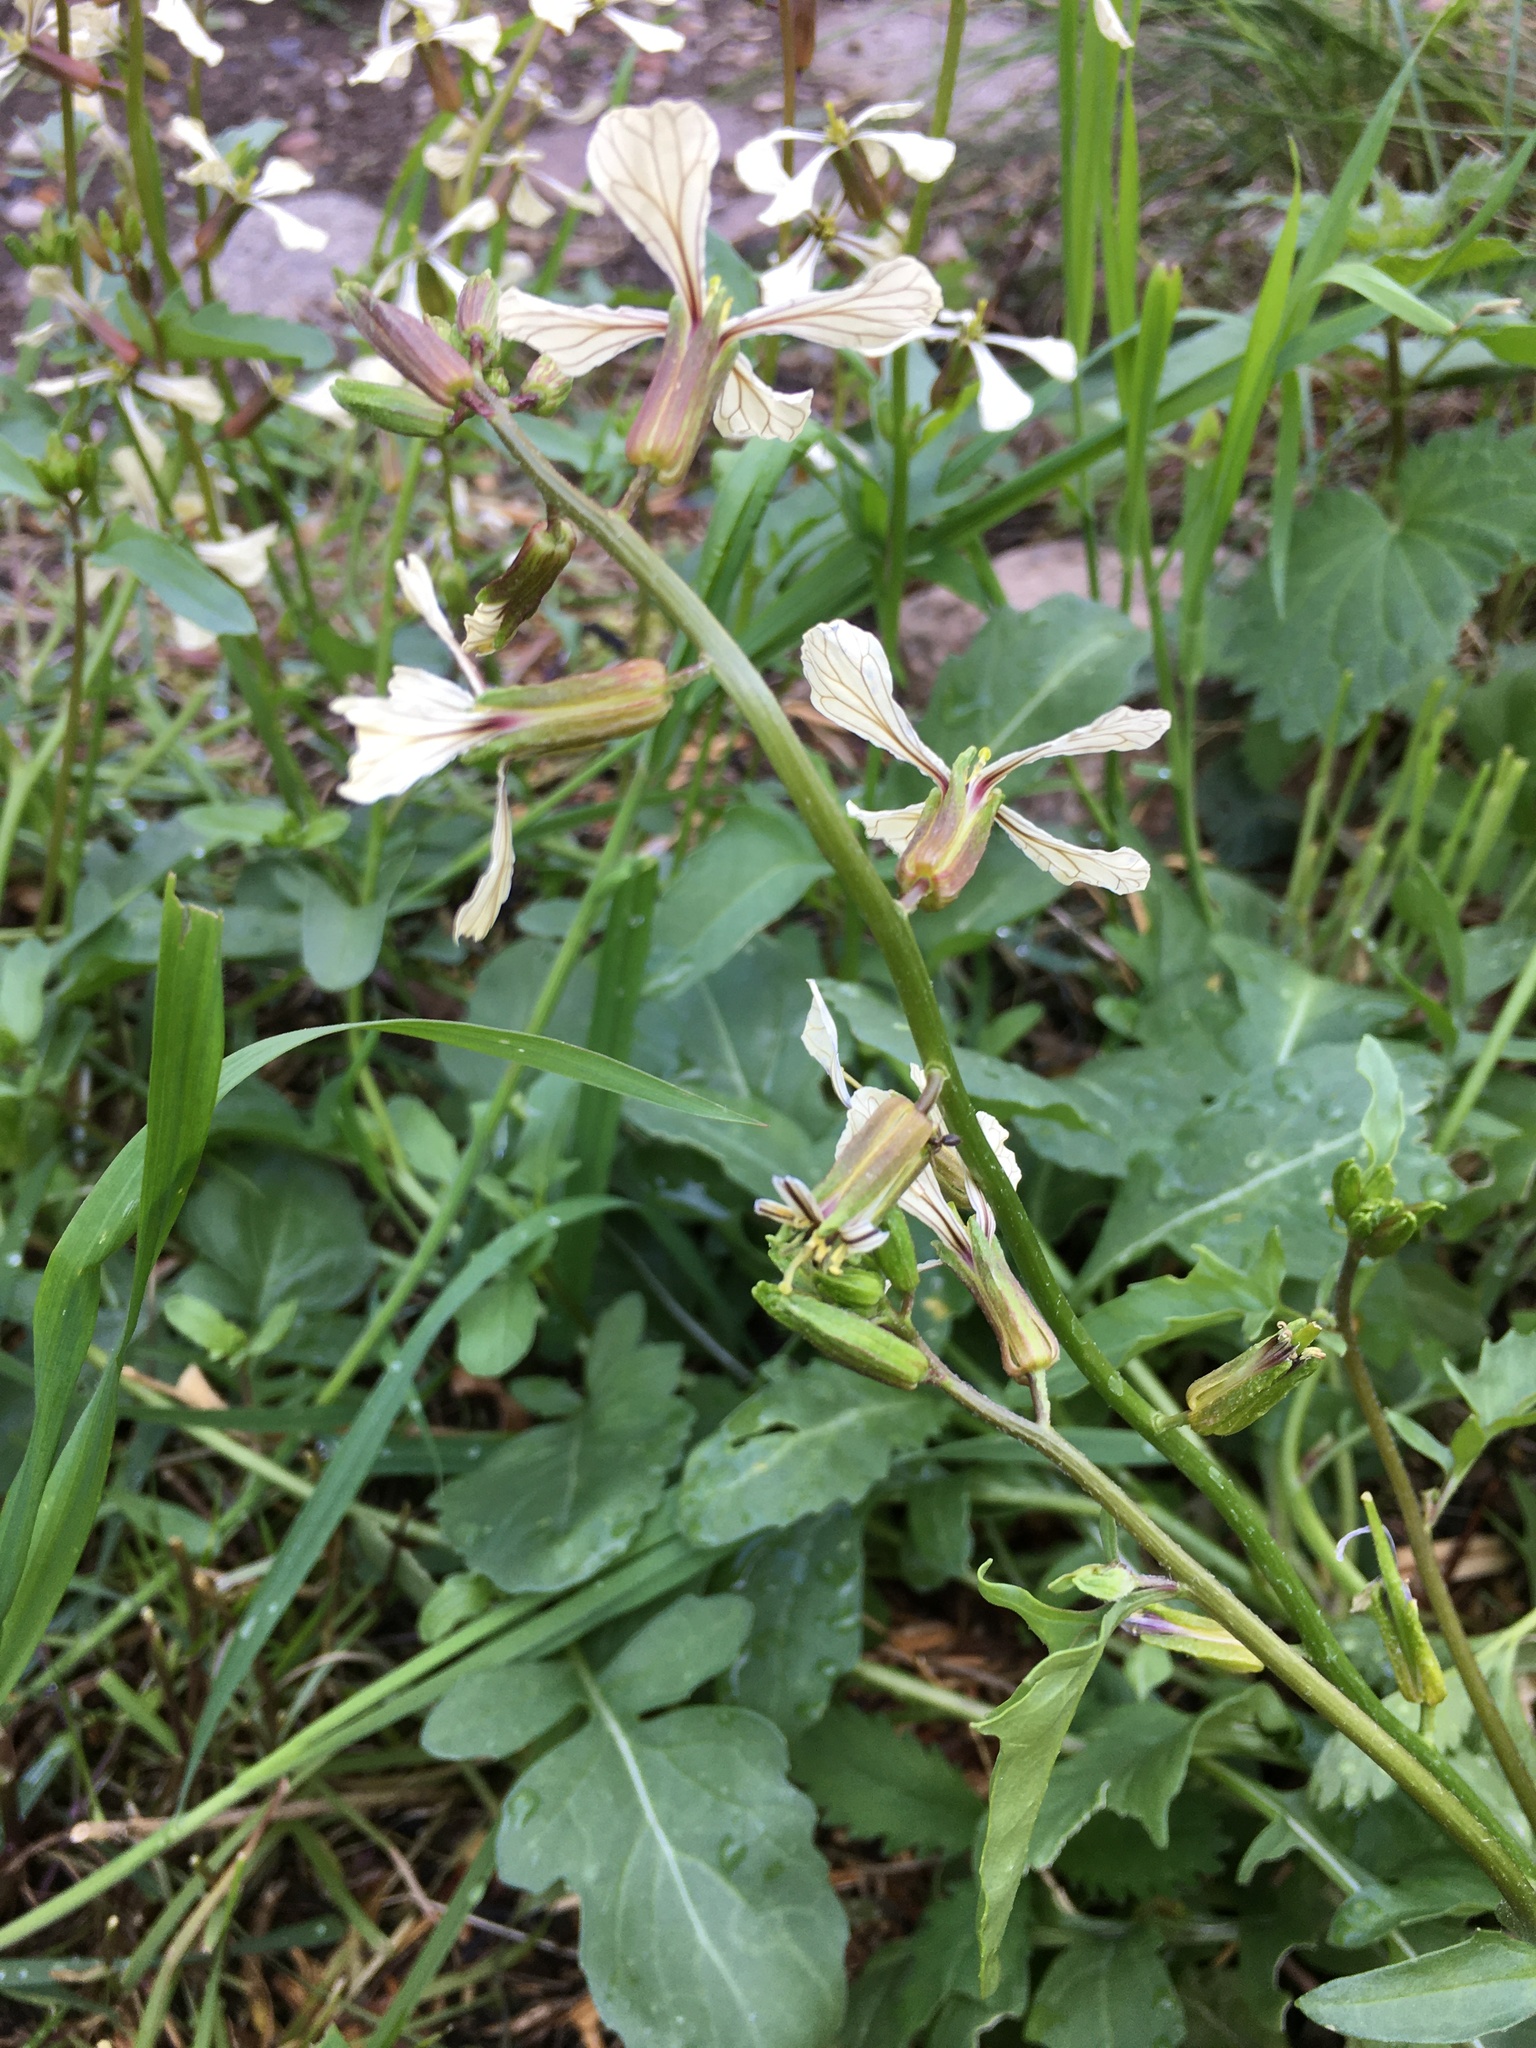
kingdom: Plantae
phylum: Tracheophyta
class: Magnoliopsida
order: Brassicales
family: Brassicaceae
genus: Eruca
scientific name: Eruca vesicaria
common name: Garden rocket
